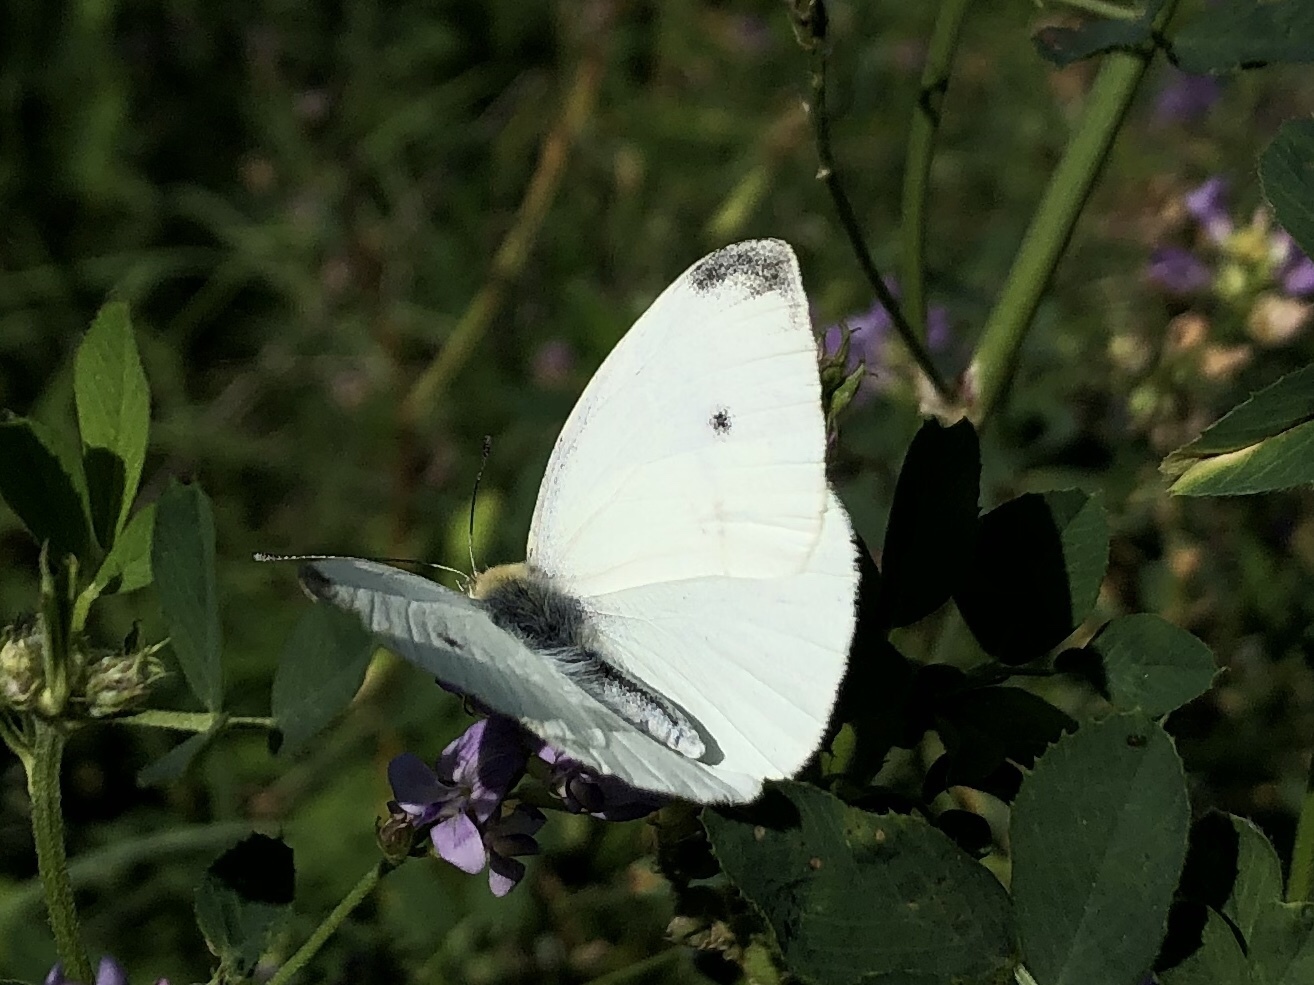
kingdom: Animalia
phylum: Arthropoda
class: Insecta
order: Lepidoptera
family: Pieridae
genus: Pieris
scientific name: Pieris rapae
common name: Small white
